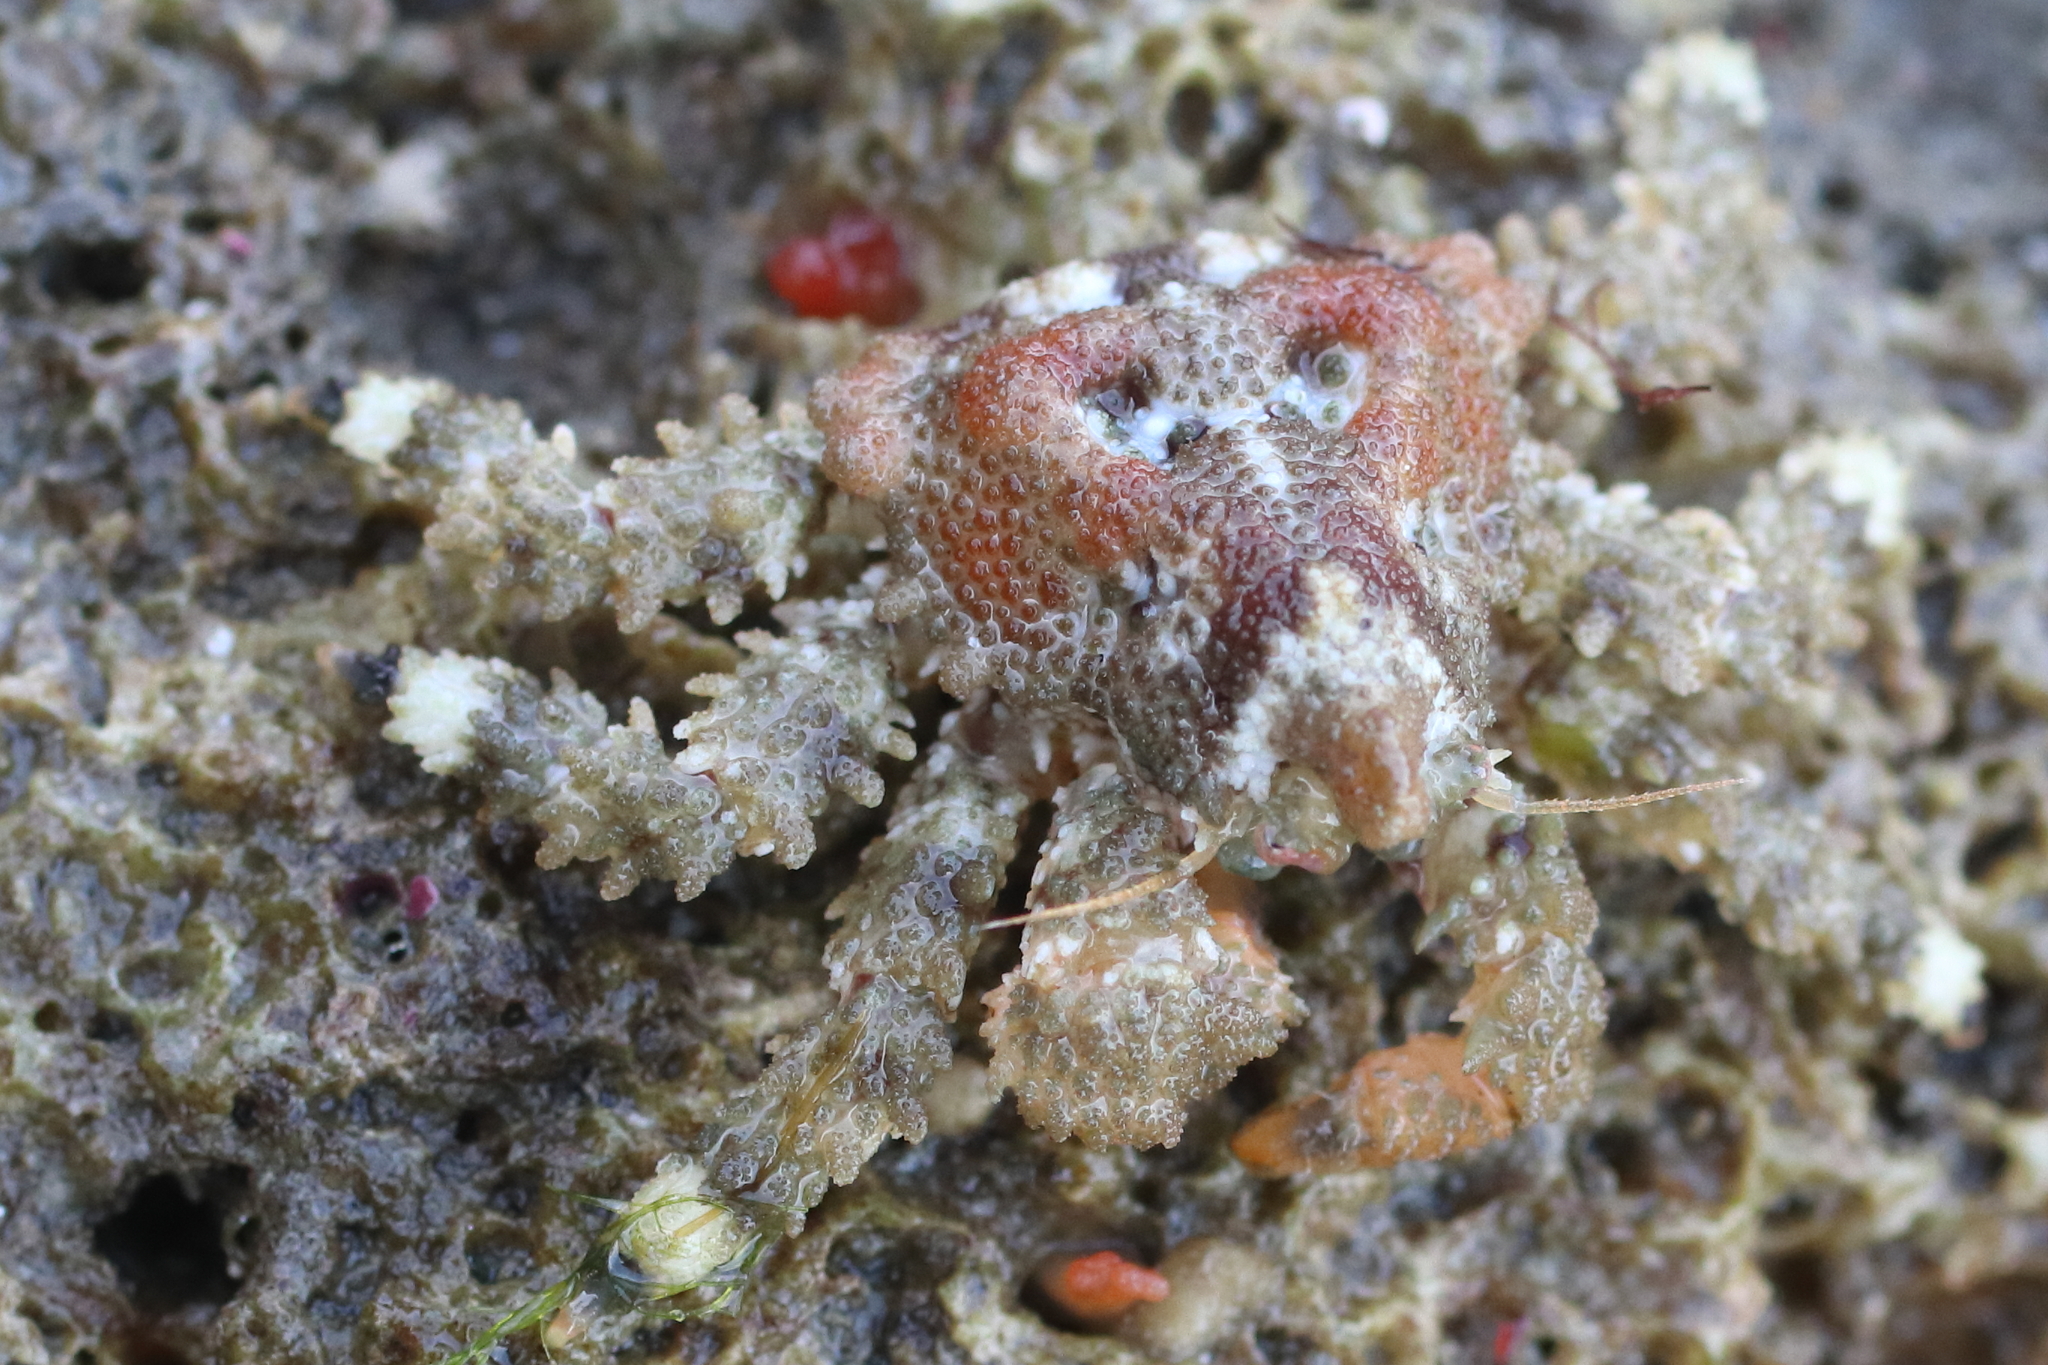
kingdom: Animalia
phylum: Arthropoda
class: Malacostraca
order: Decapoda
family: Lithodidae
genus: Phyllolithodes
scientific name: Phyllolithodes papillosus
